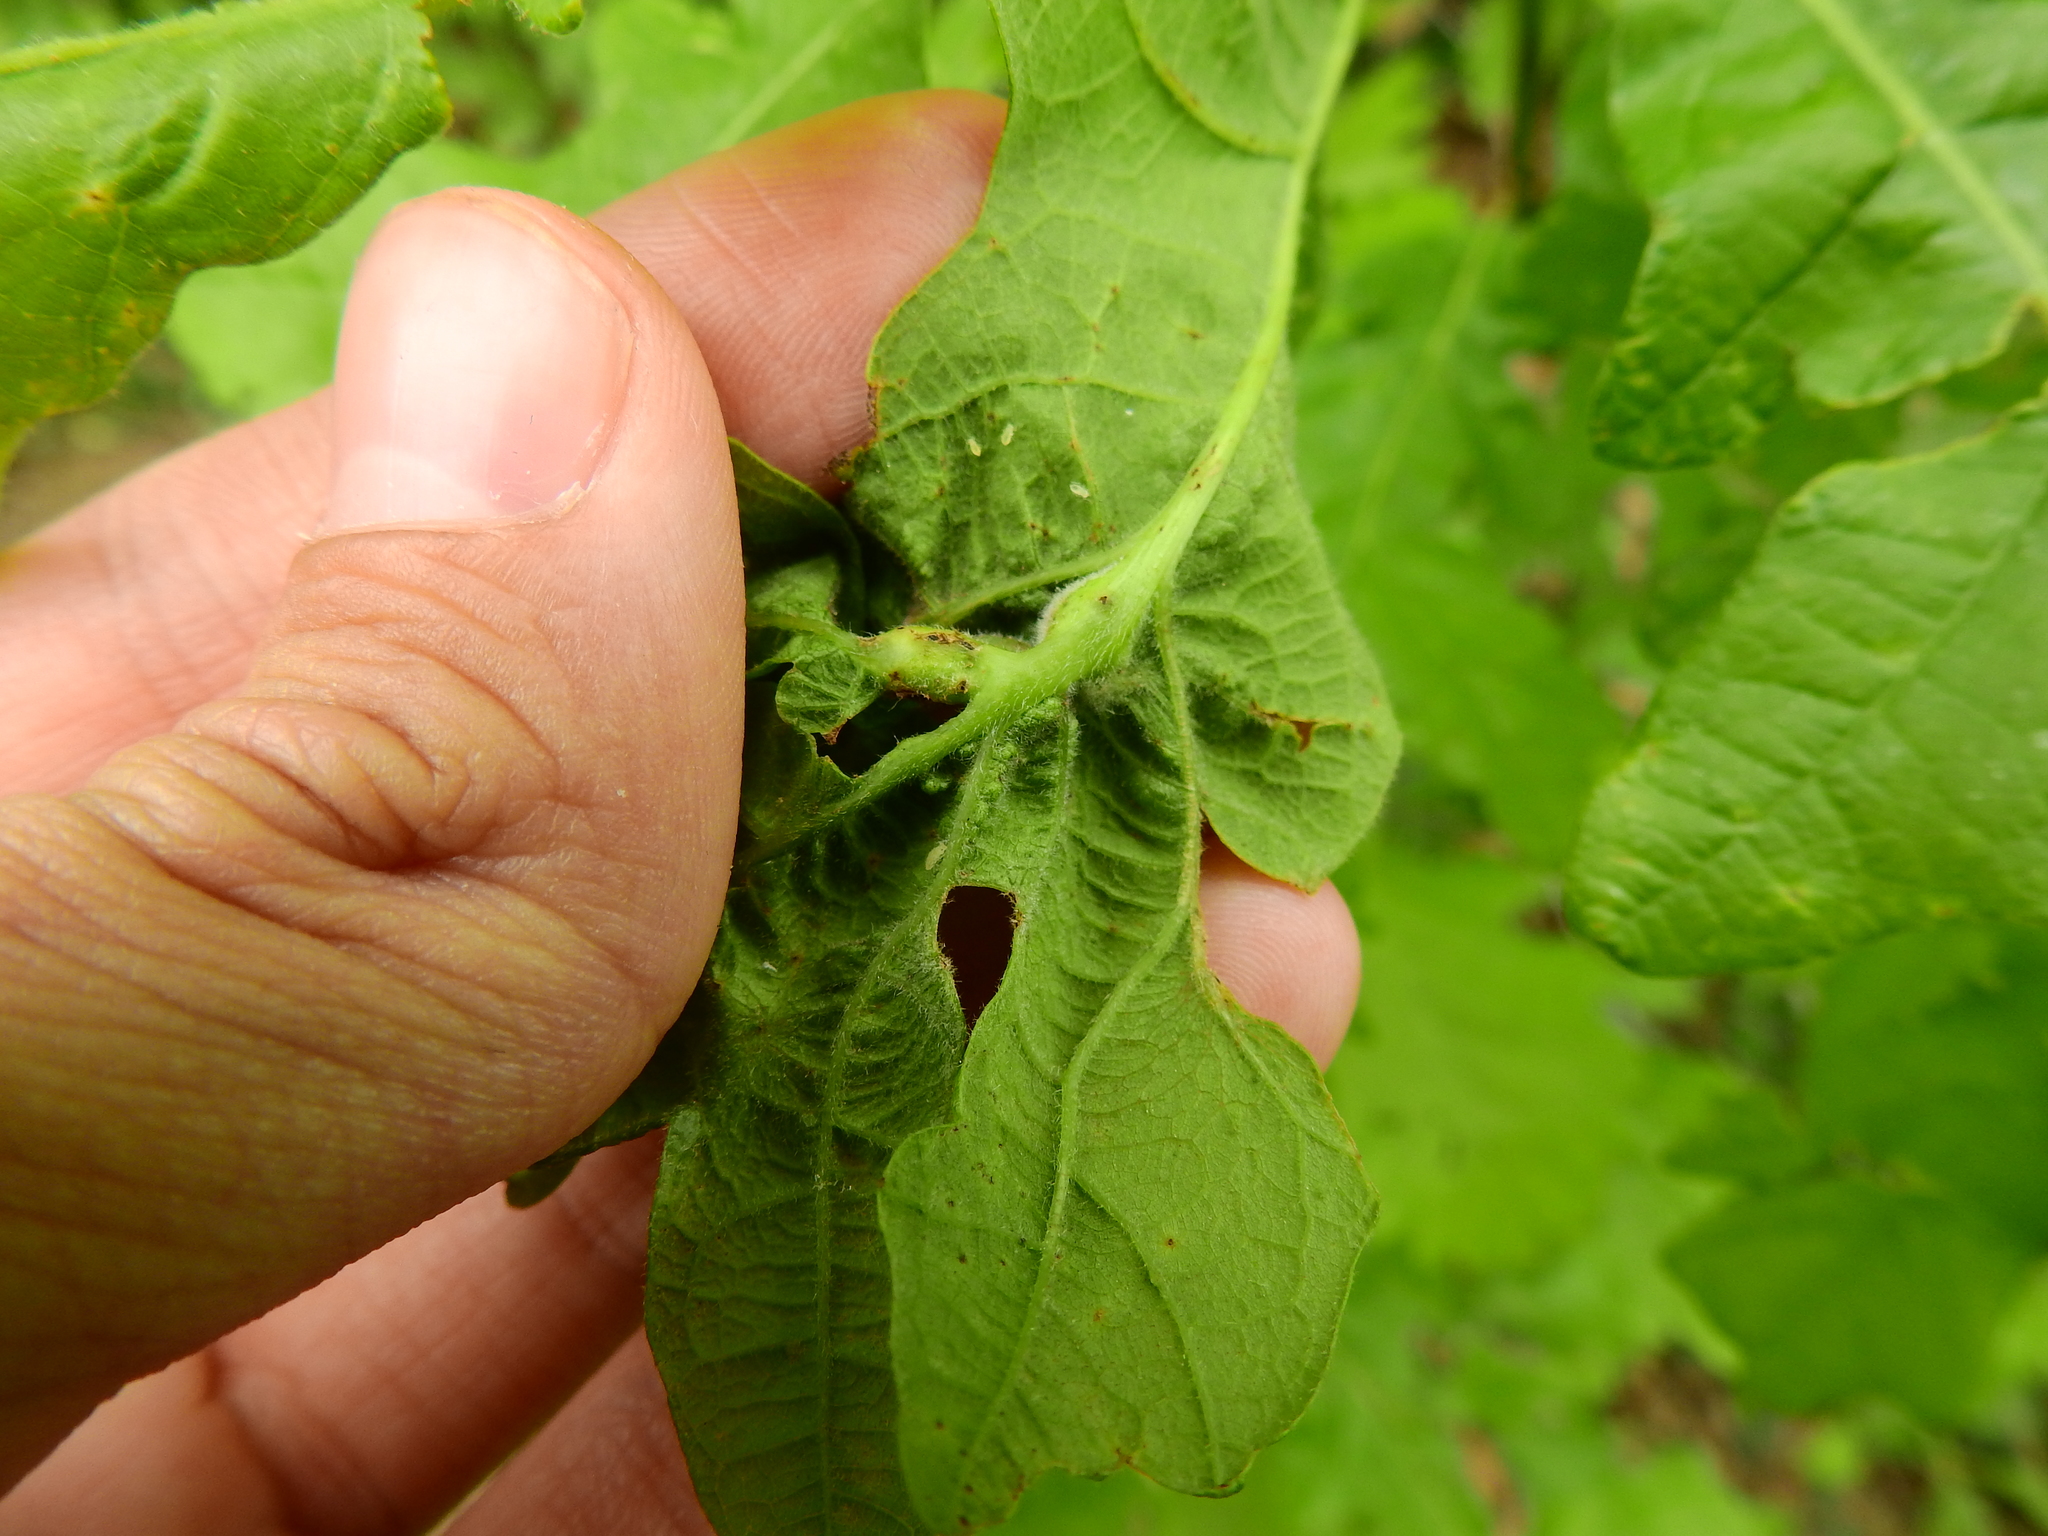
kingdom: Animalia
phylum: Arthropoda
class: Insecta
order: Hymenoptera
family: Cynipidae
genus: Bassettia
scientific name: Bassettia flavipes
